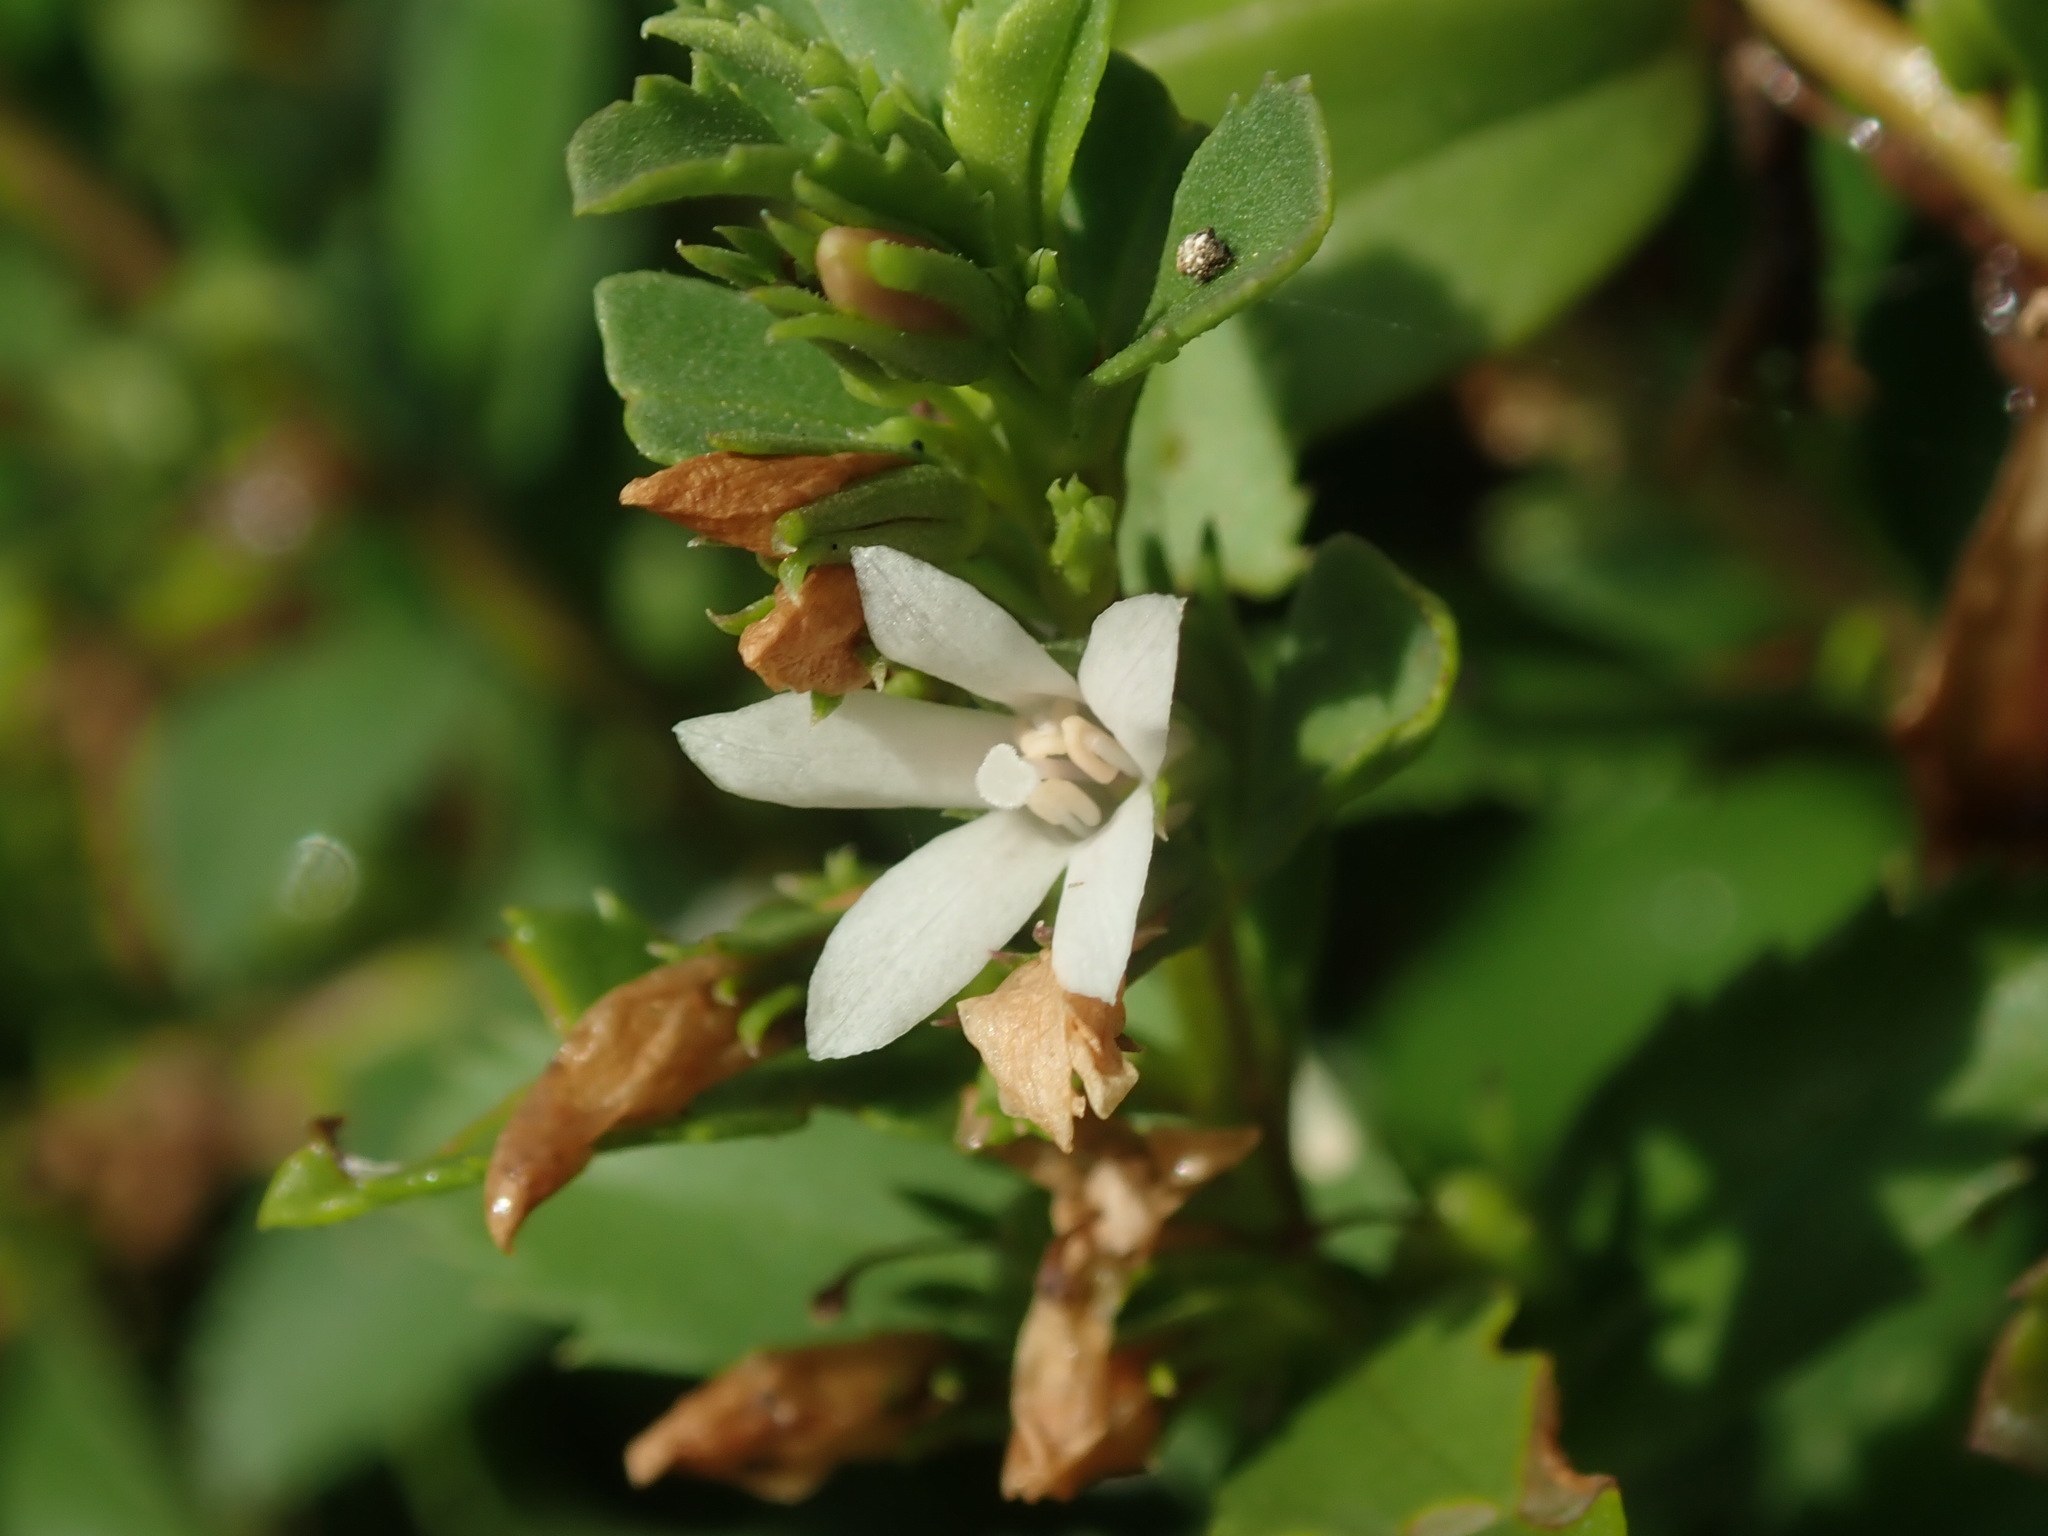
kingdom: Plantae
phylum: Tracheophyta
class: Magnoliopsida
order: Lamiales
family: Scrophulariaceae
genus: Capraria
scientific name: Capraria biflora
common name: Goatweed
